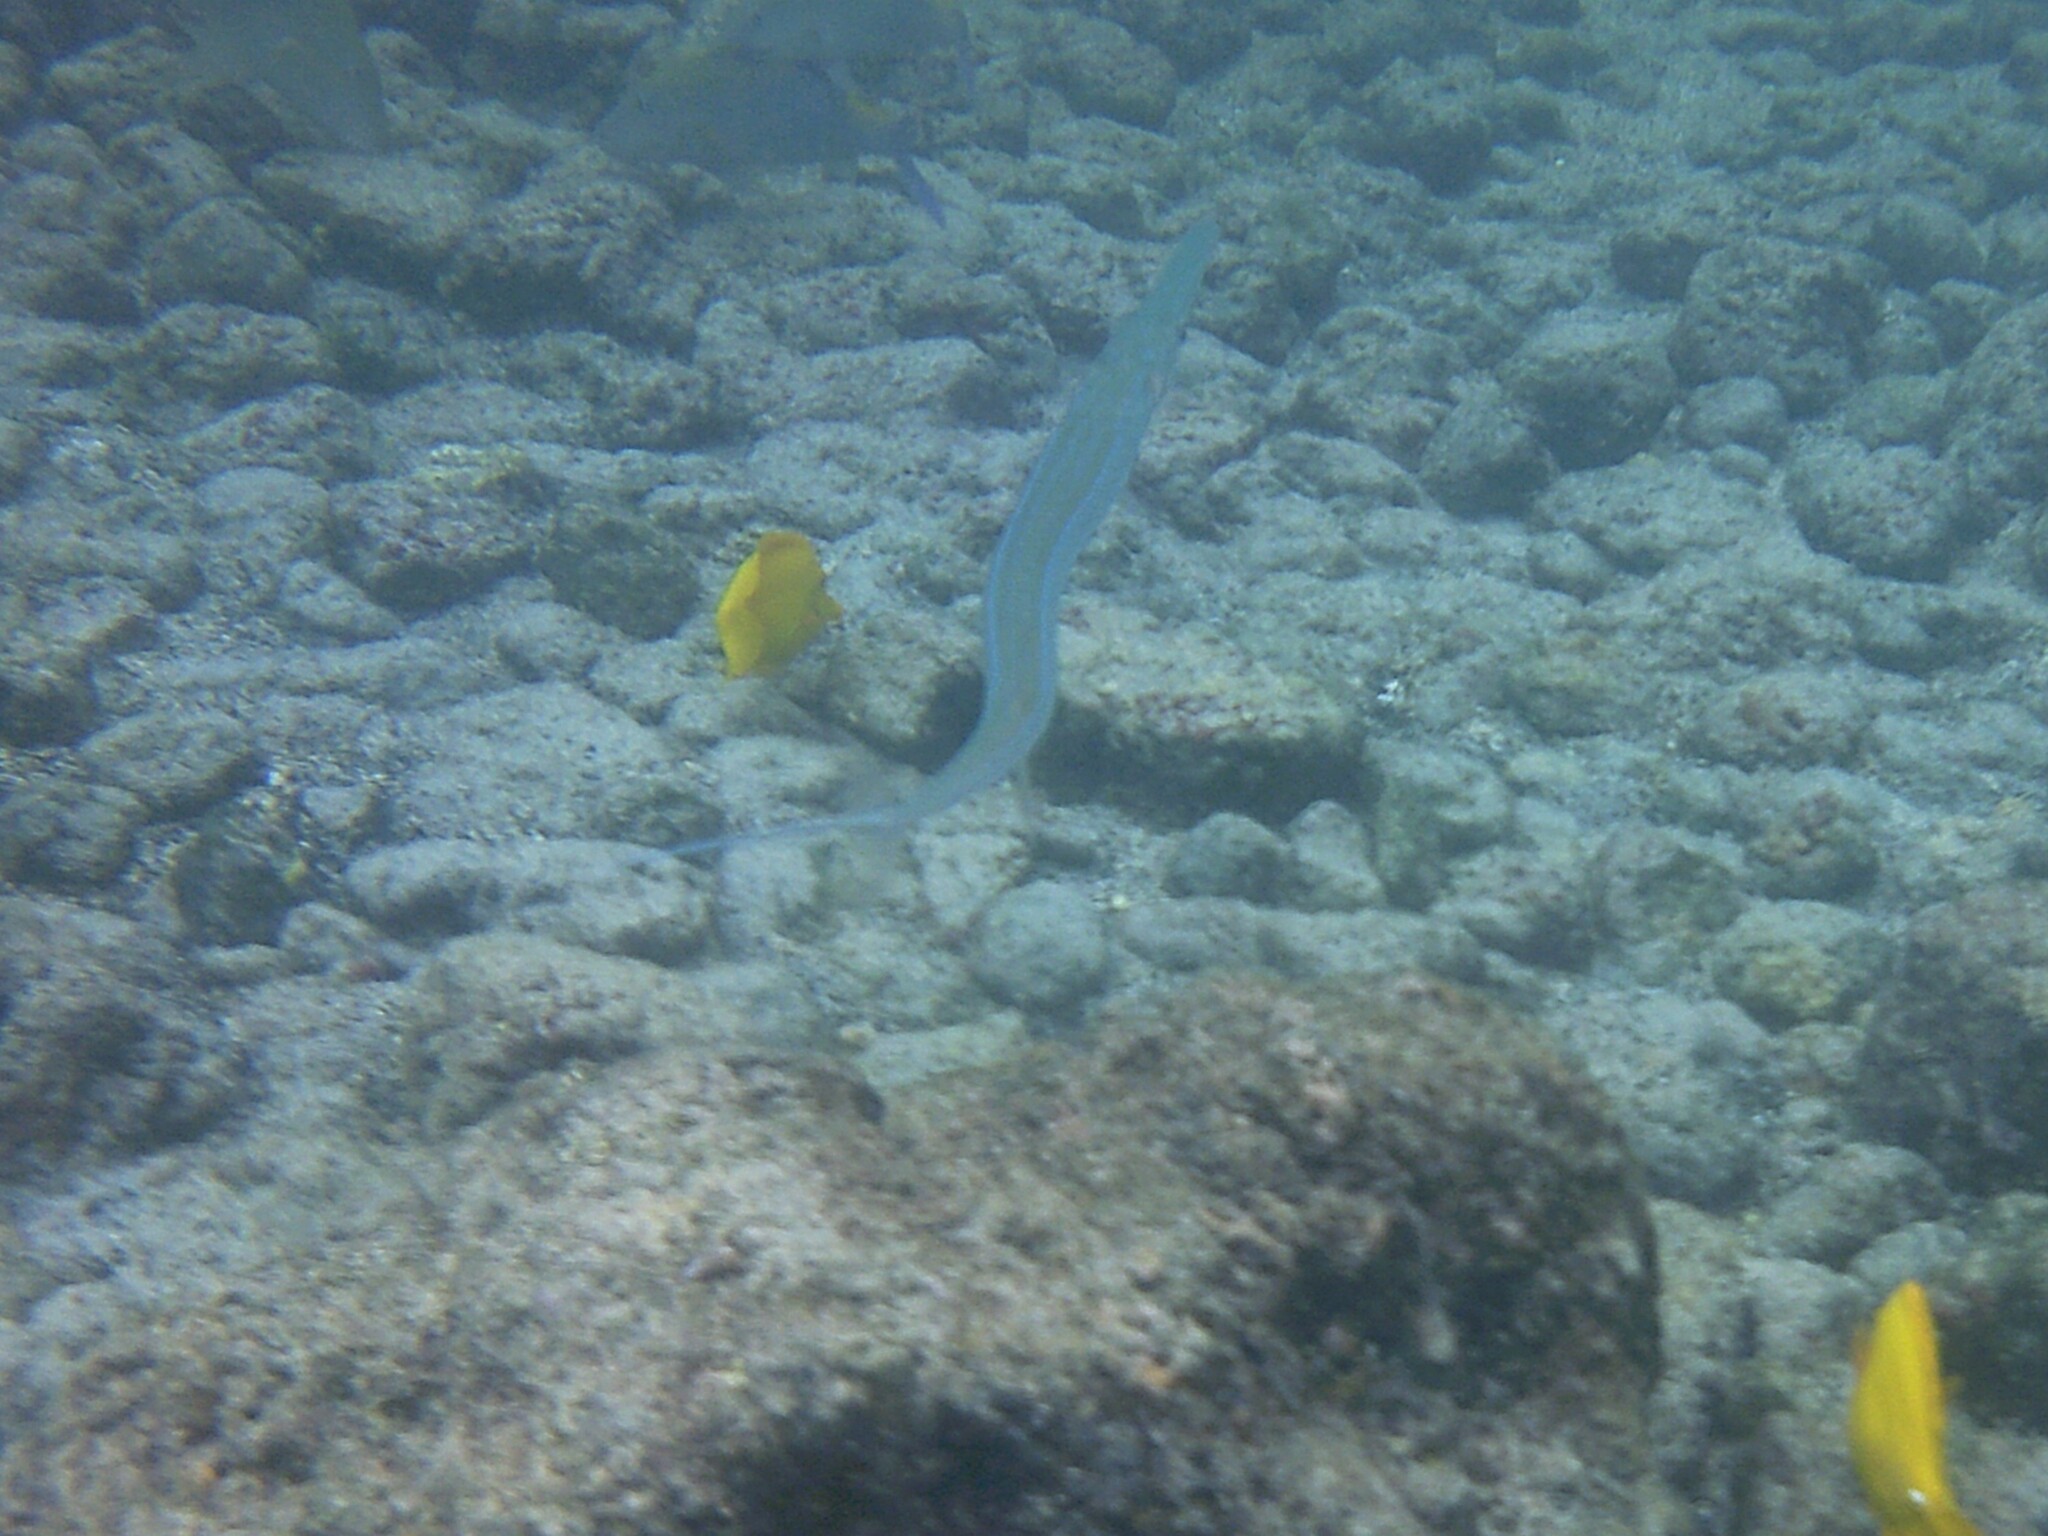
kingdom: Animalia
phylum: Chordata
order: Syngnathiformes
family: Fistulariidae
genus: Fistularia
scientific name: Fistularia commersonii
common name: Bluespotted cornetfish
